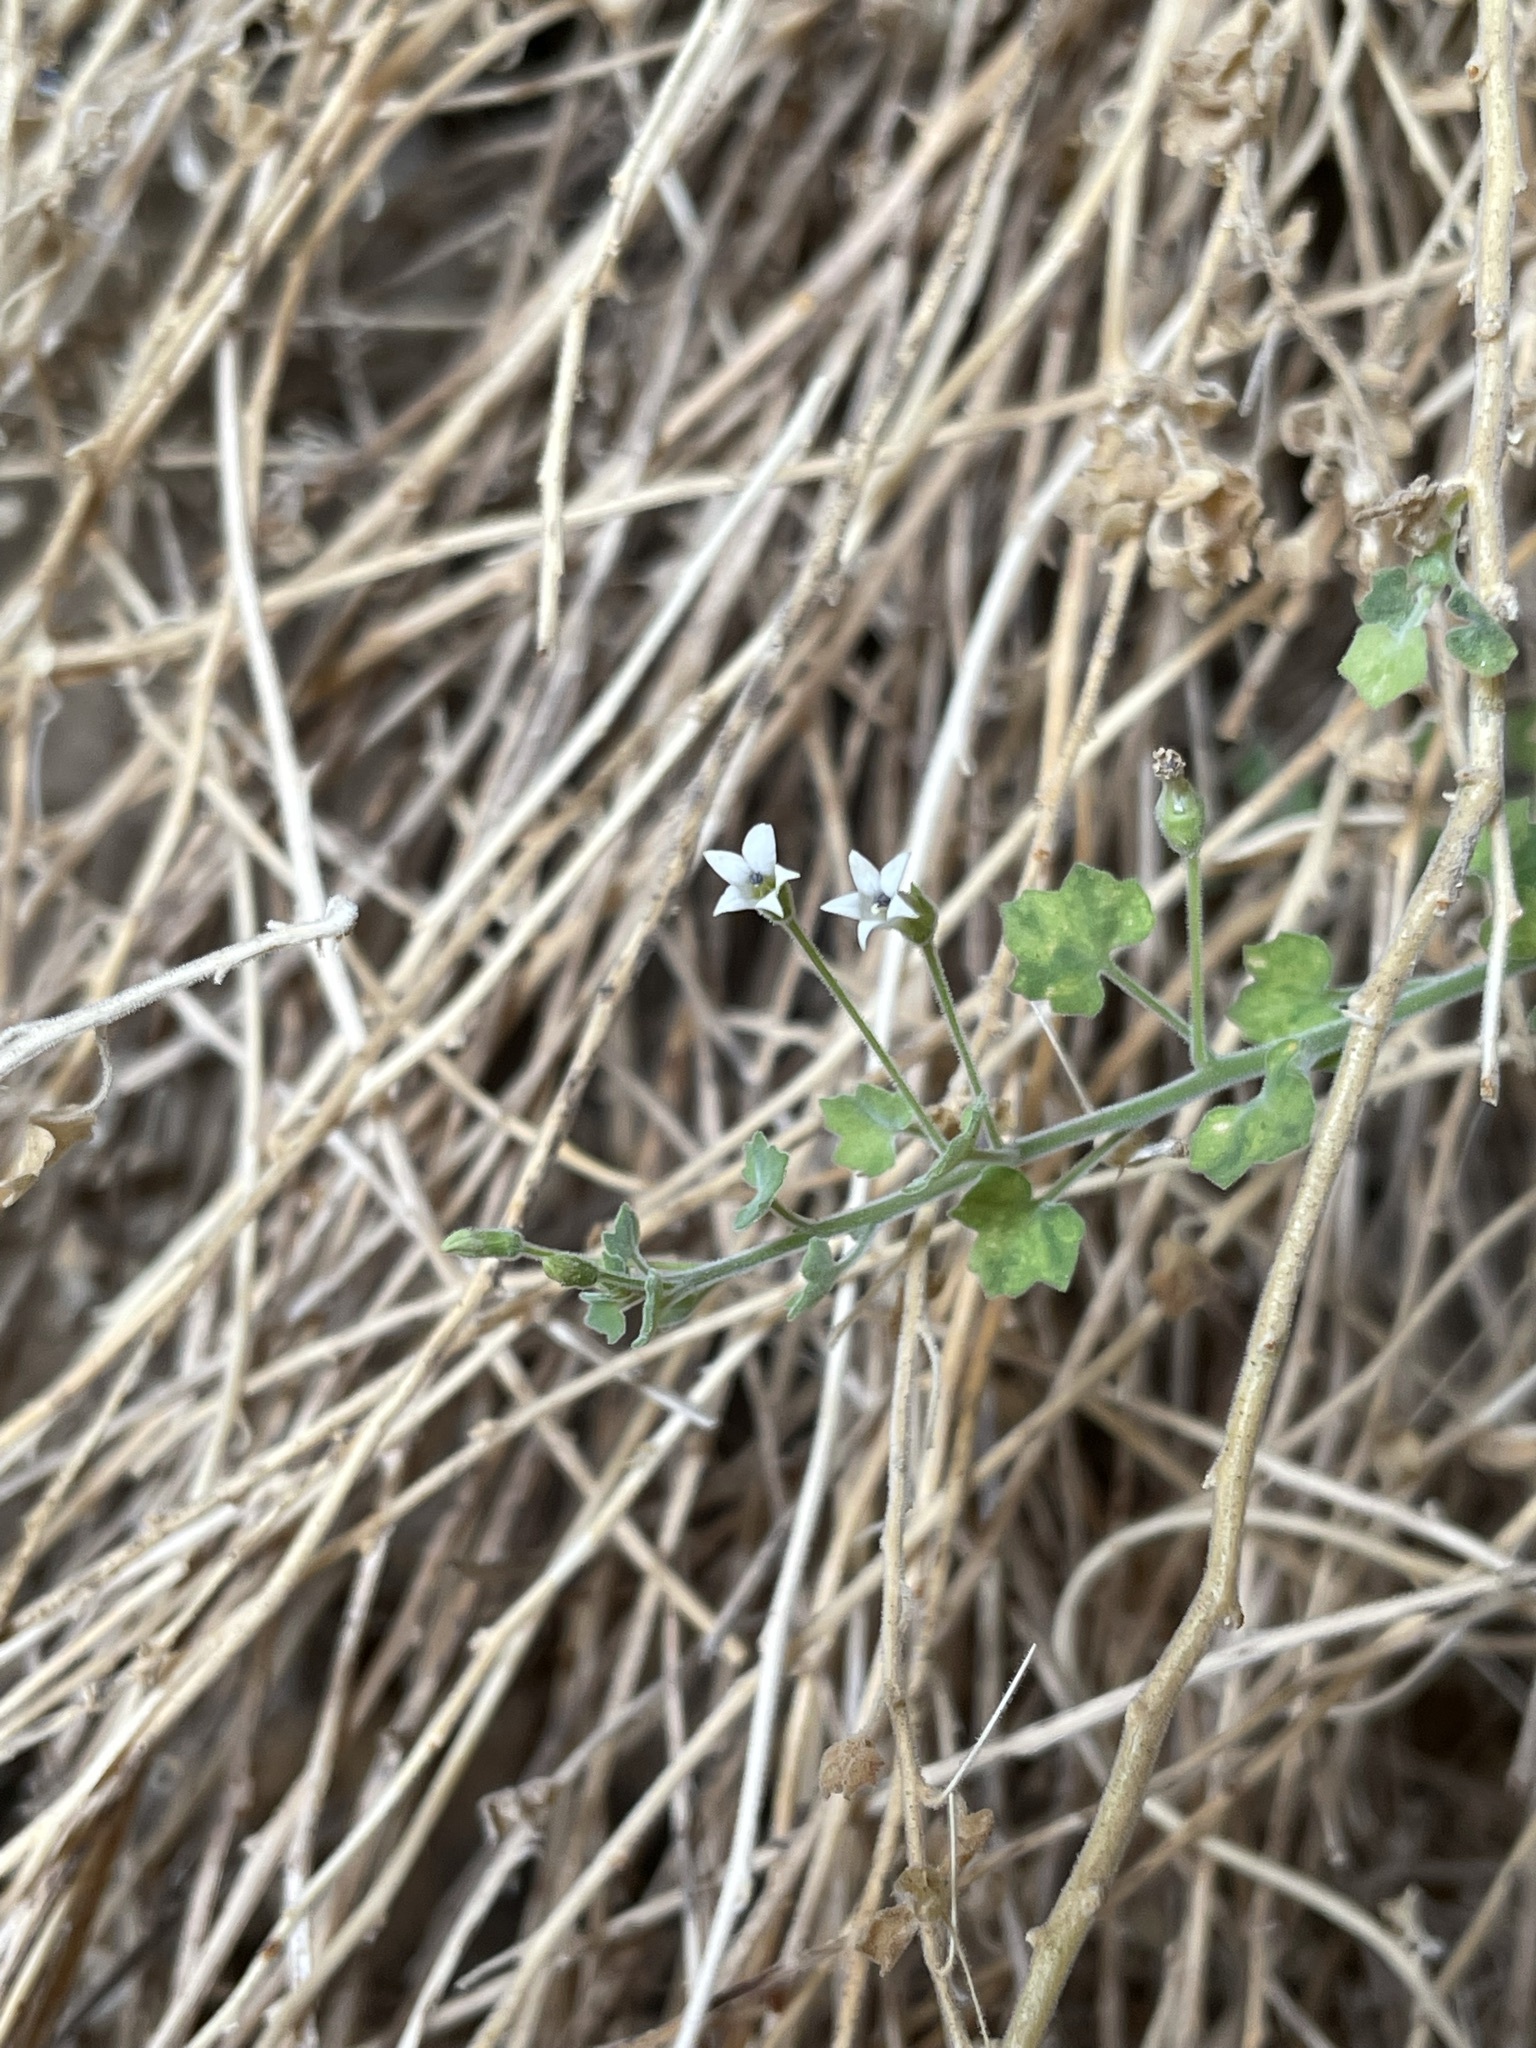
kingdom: Plantae
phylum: Tracheophyta
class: Magnoliopsida
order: Asterales
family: Campanulaceae
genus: Wimmerella
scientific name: Wimmerella hederacea
